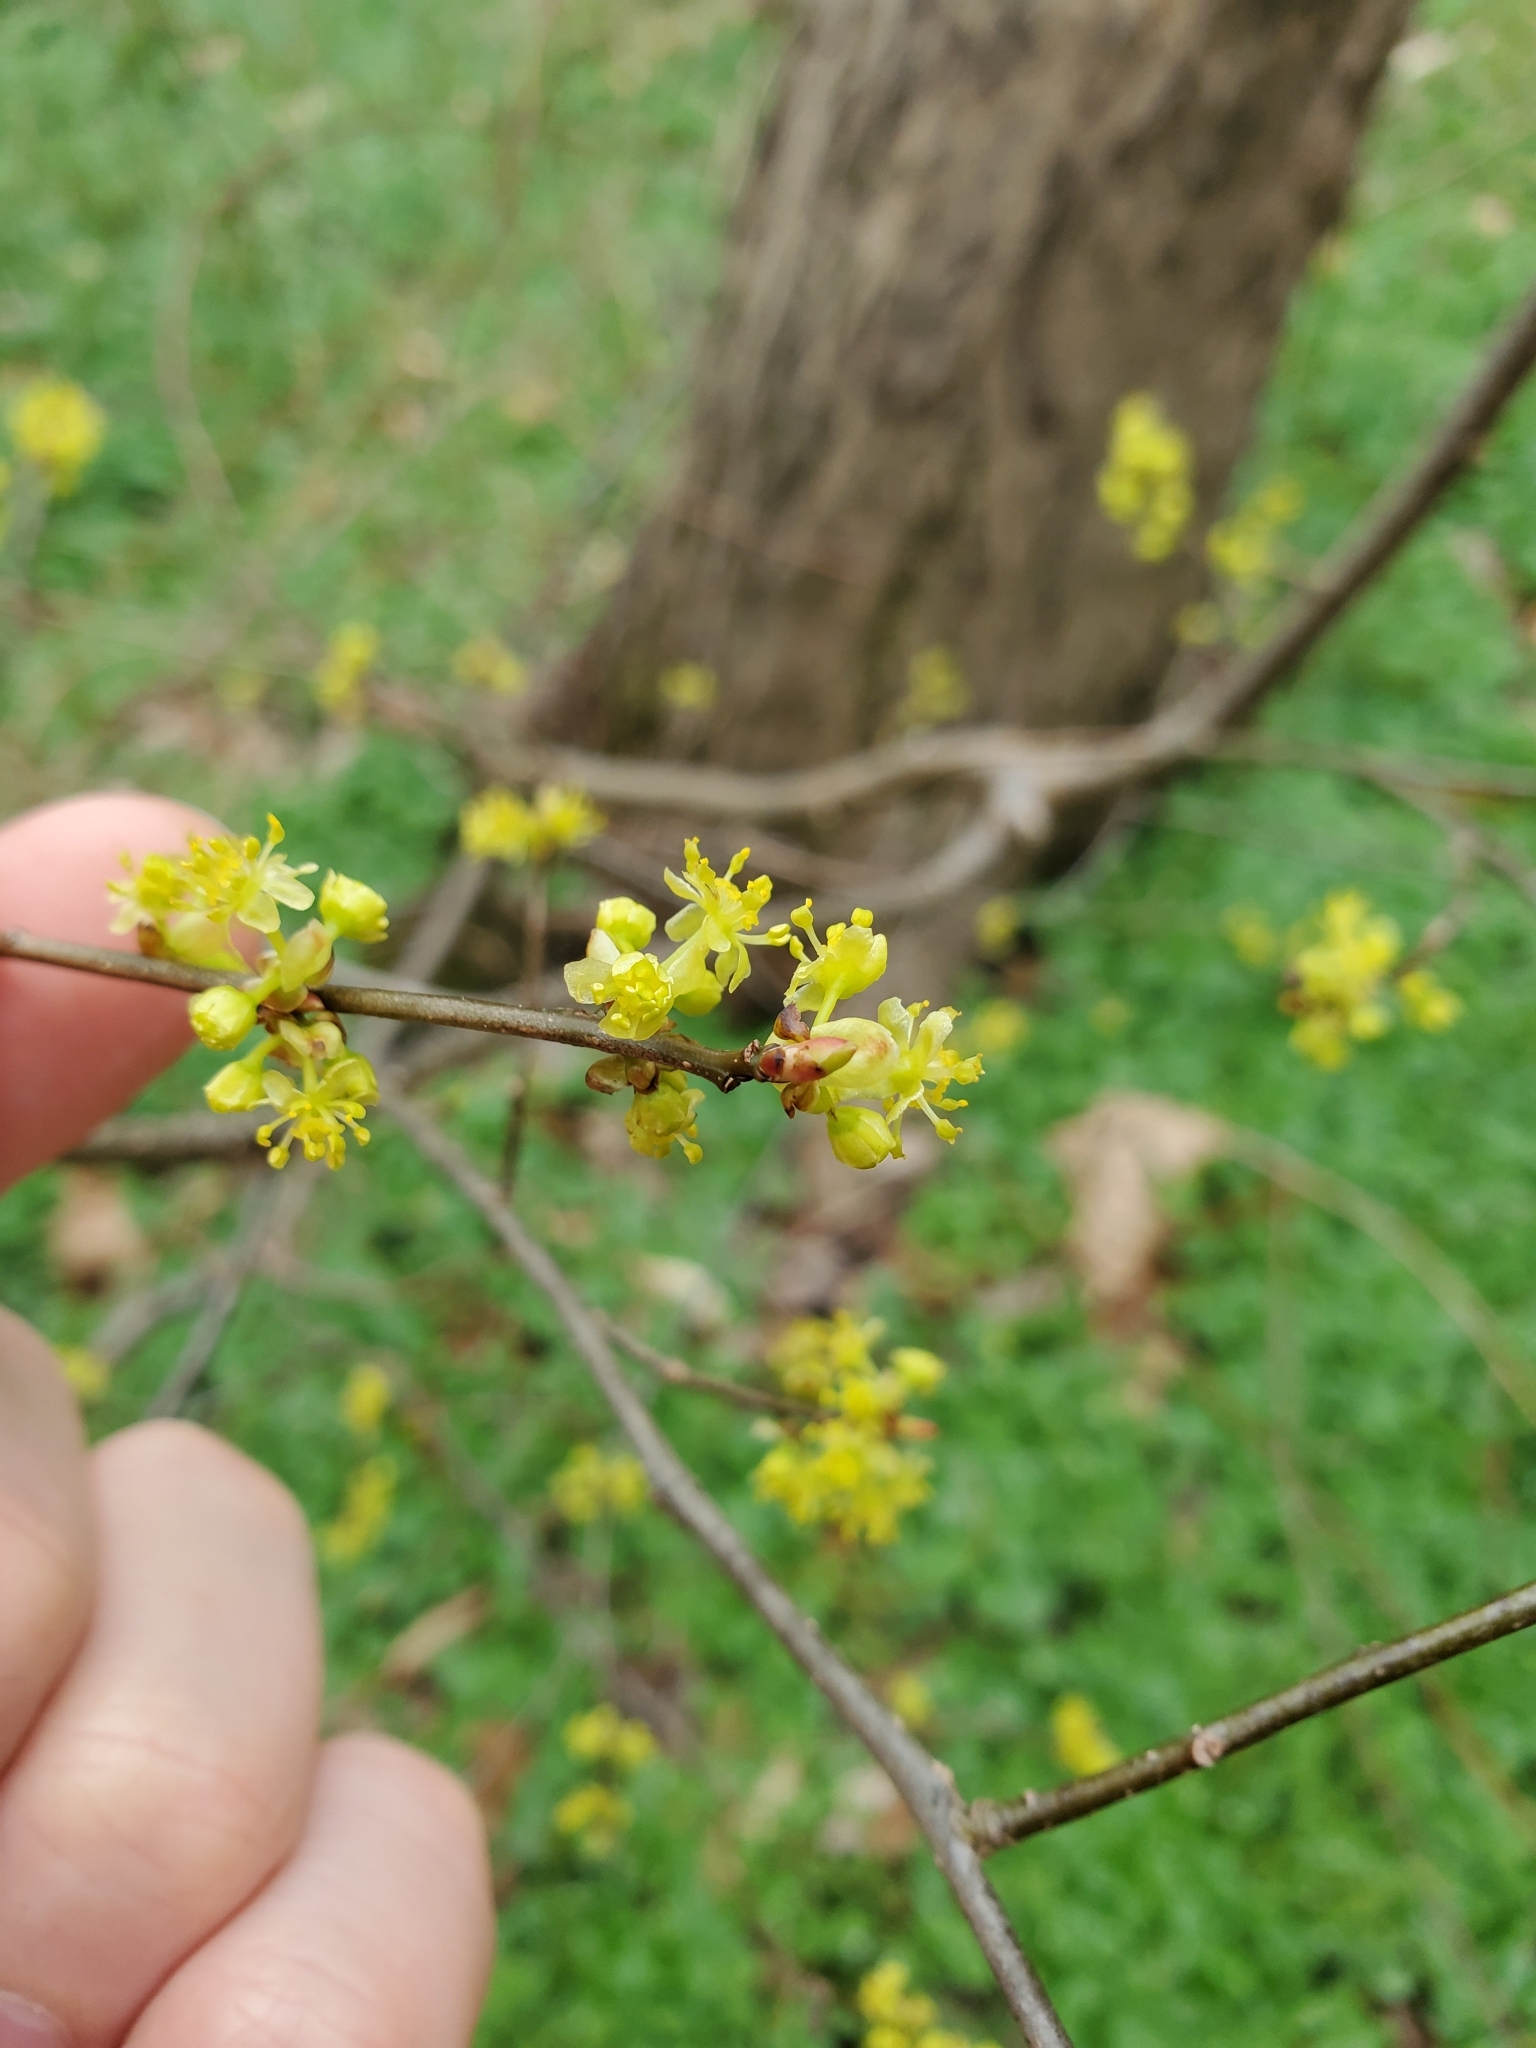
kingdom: Plantae
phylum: Tracheophyta
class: Magnoliopsida
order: Laurales
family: Lauraceae
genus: Lindera
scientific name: Lindera benzoin
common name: Spicebush
